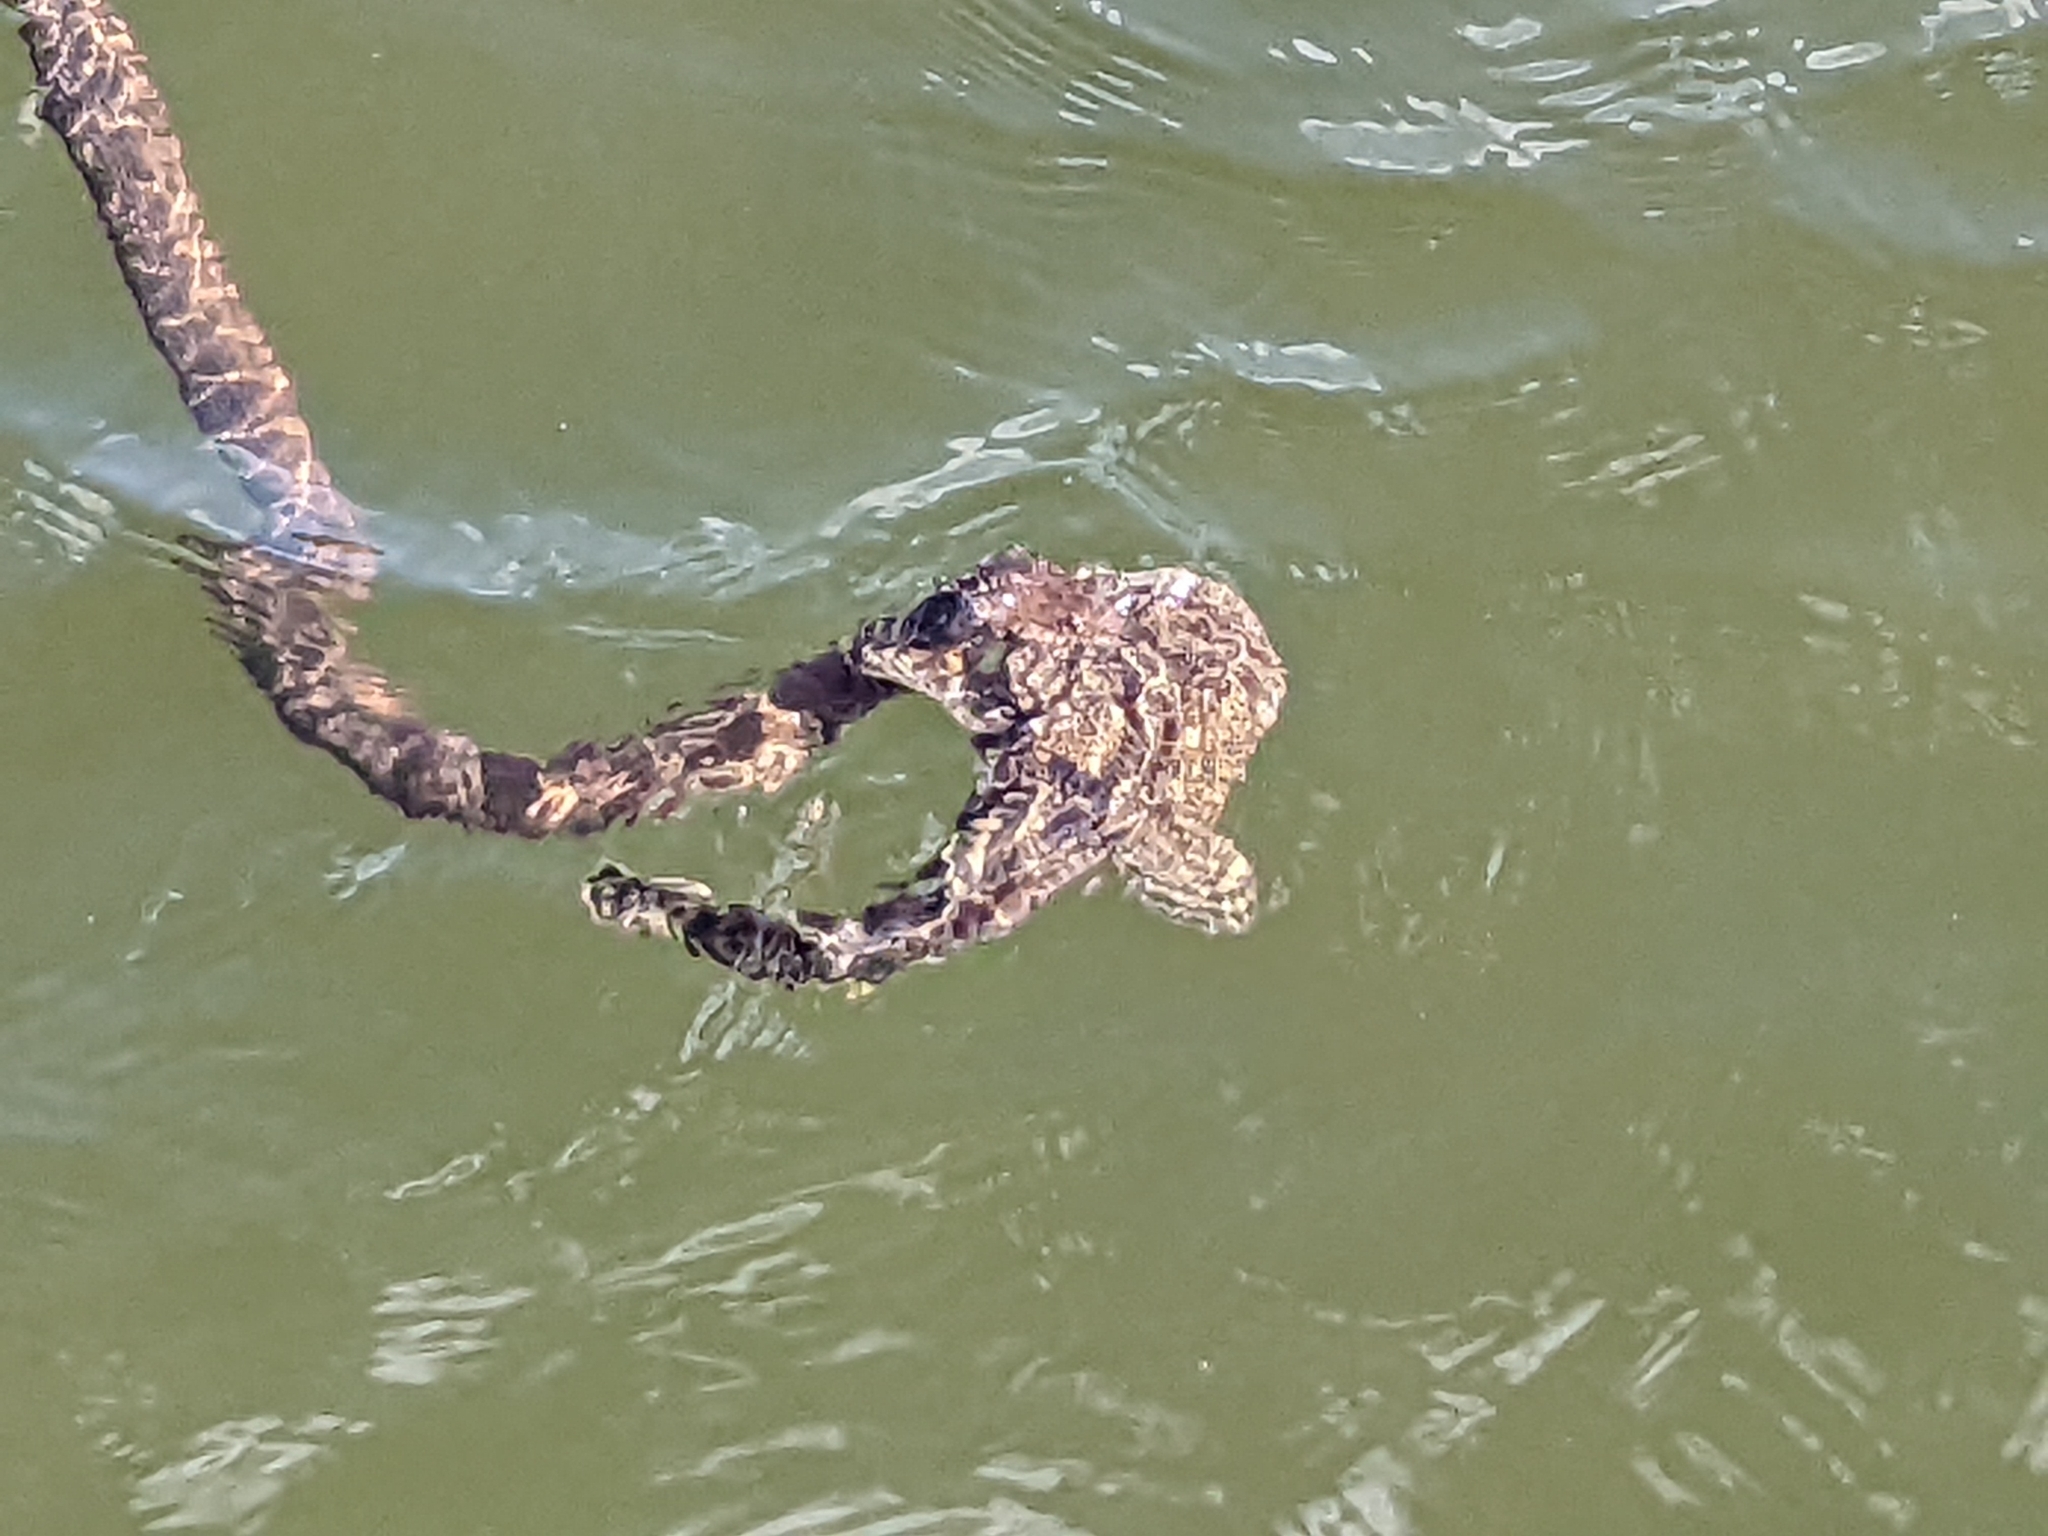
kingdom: Animalia
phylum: Chordata
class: Squamata
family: Colubridae
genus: Nerodia
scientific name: Nerodia sipedon
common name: Northern water snake
